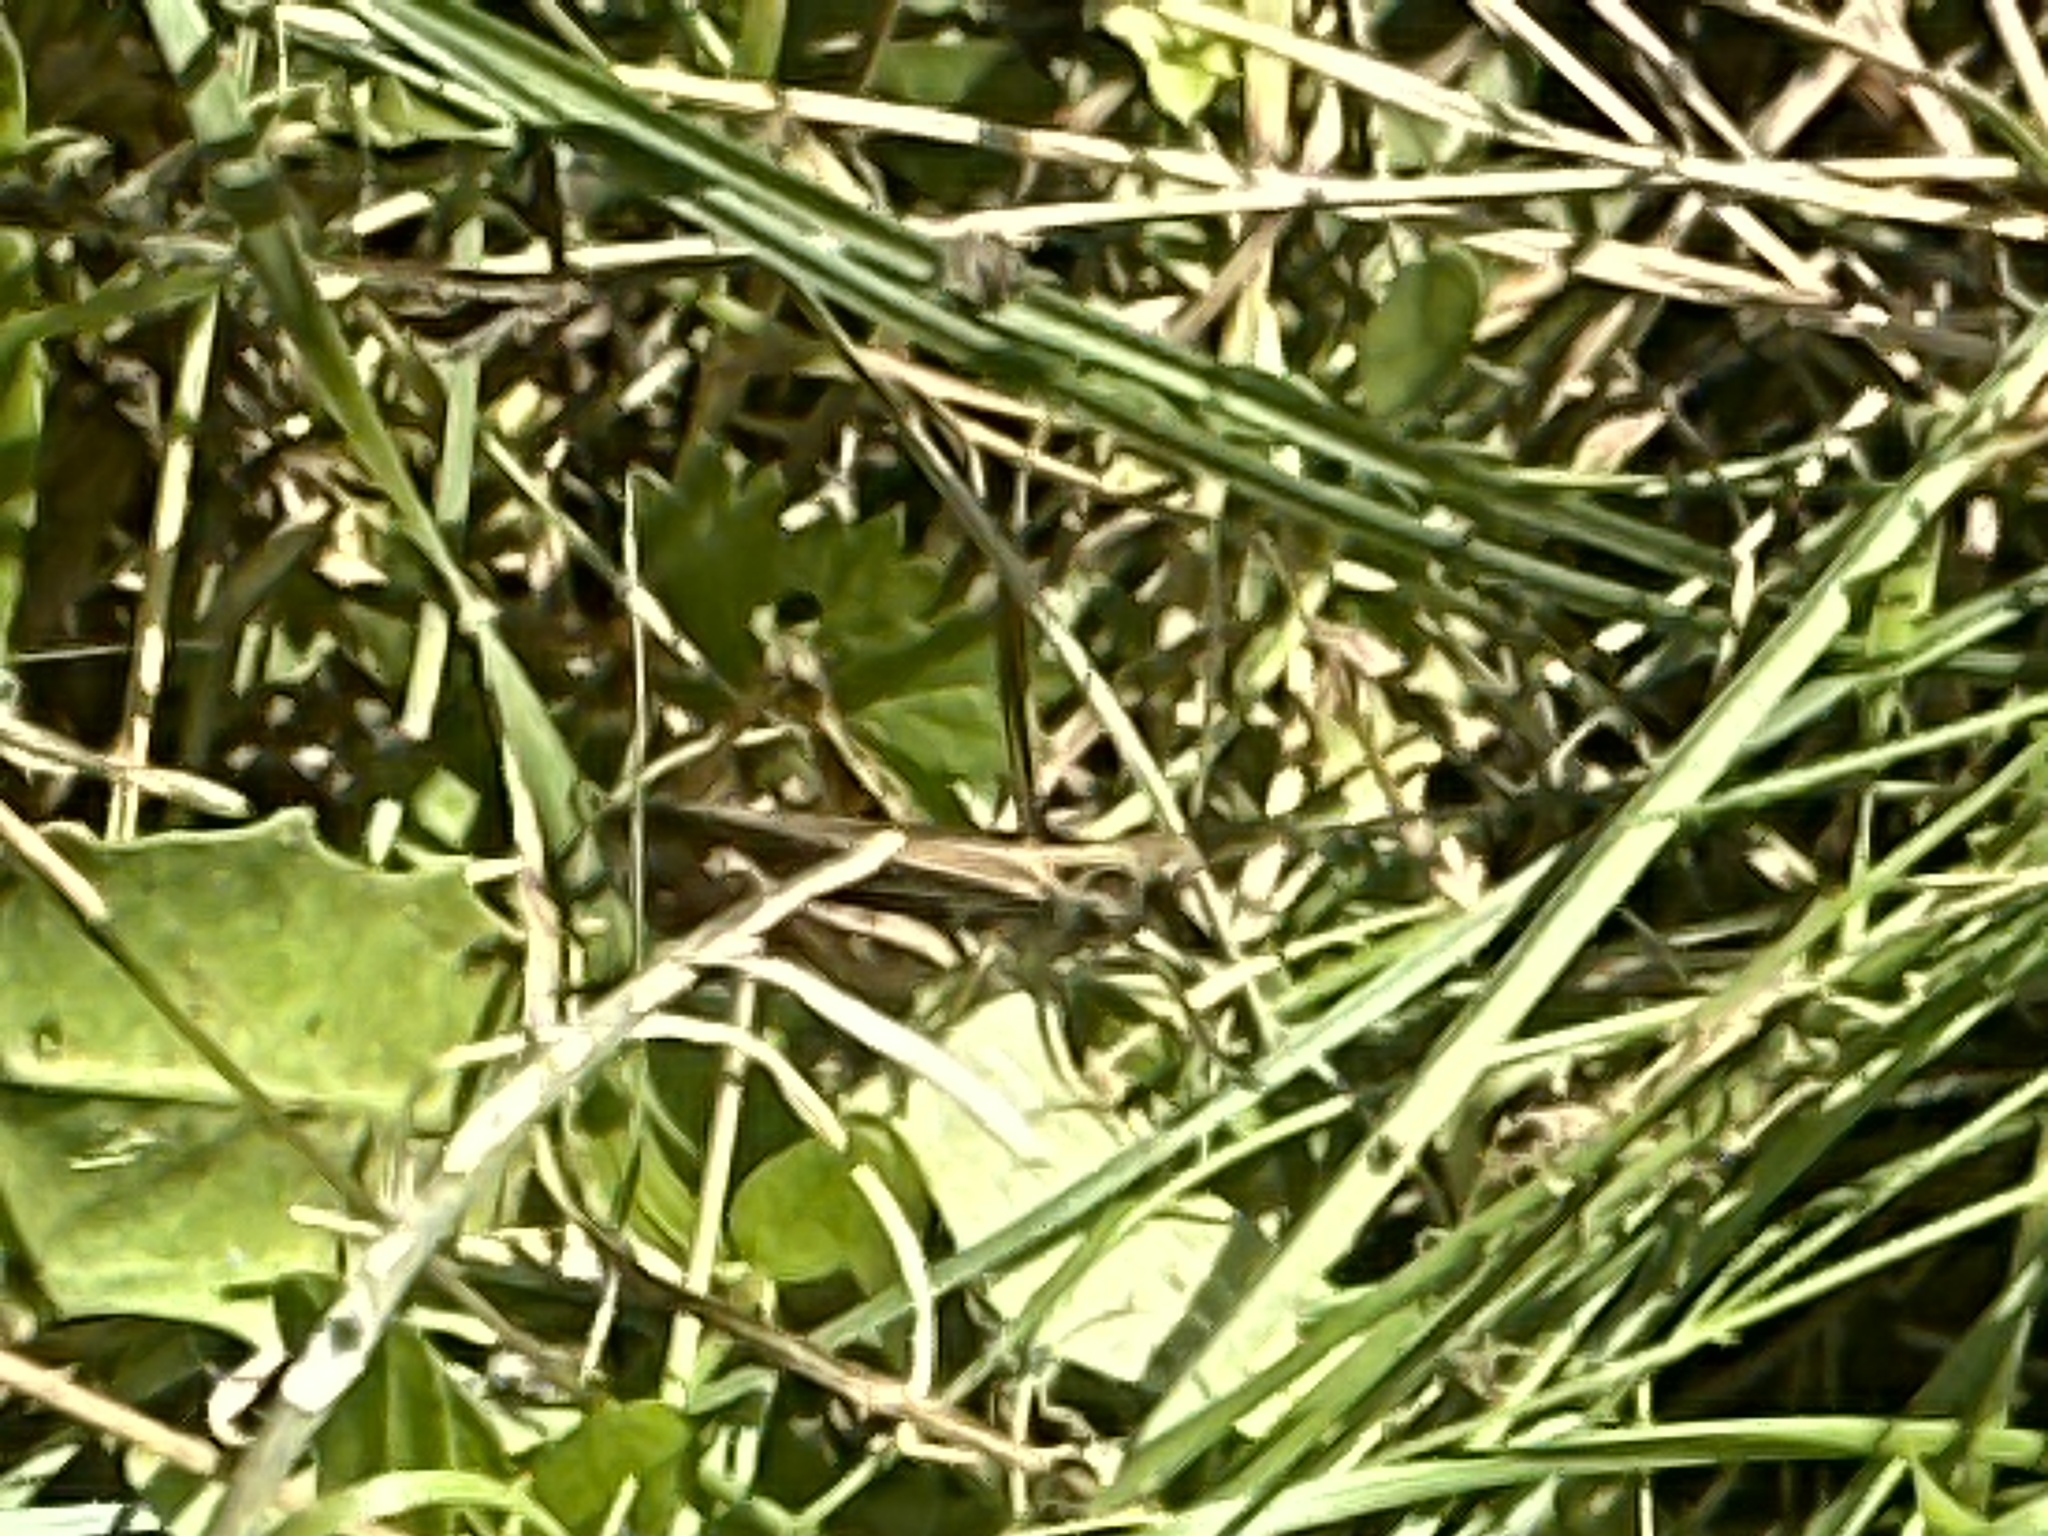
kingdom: Animalia
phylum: Arthropoda
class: Insecta
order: Orthoptera
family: Acrididae
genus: Chorthippus
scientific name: Chorthippus biguttulus
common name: Bow-winged grasshopper
